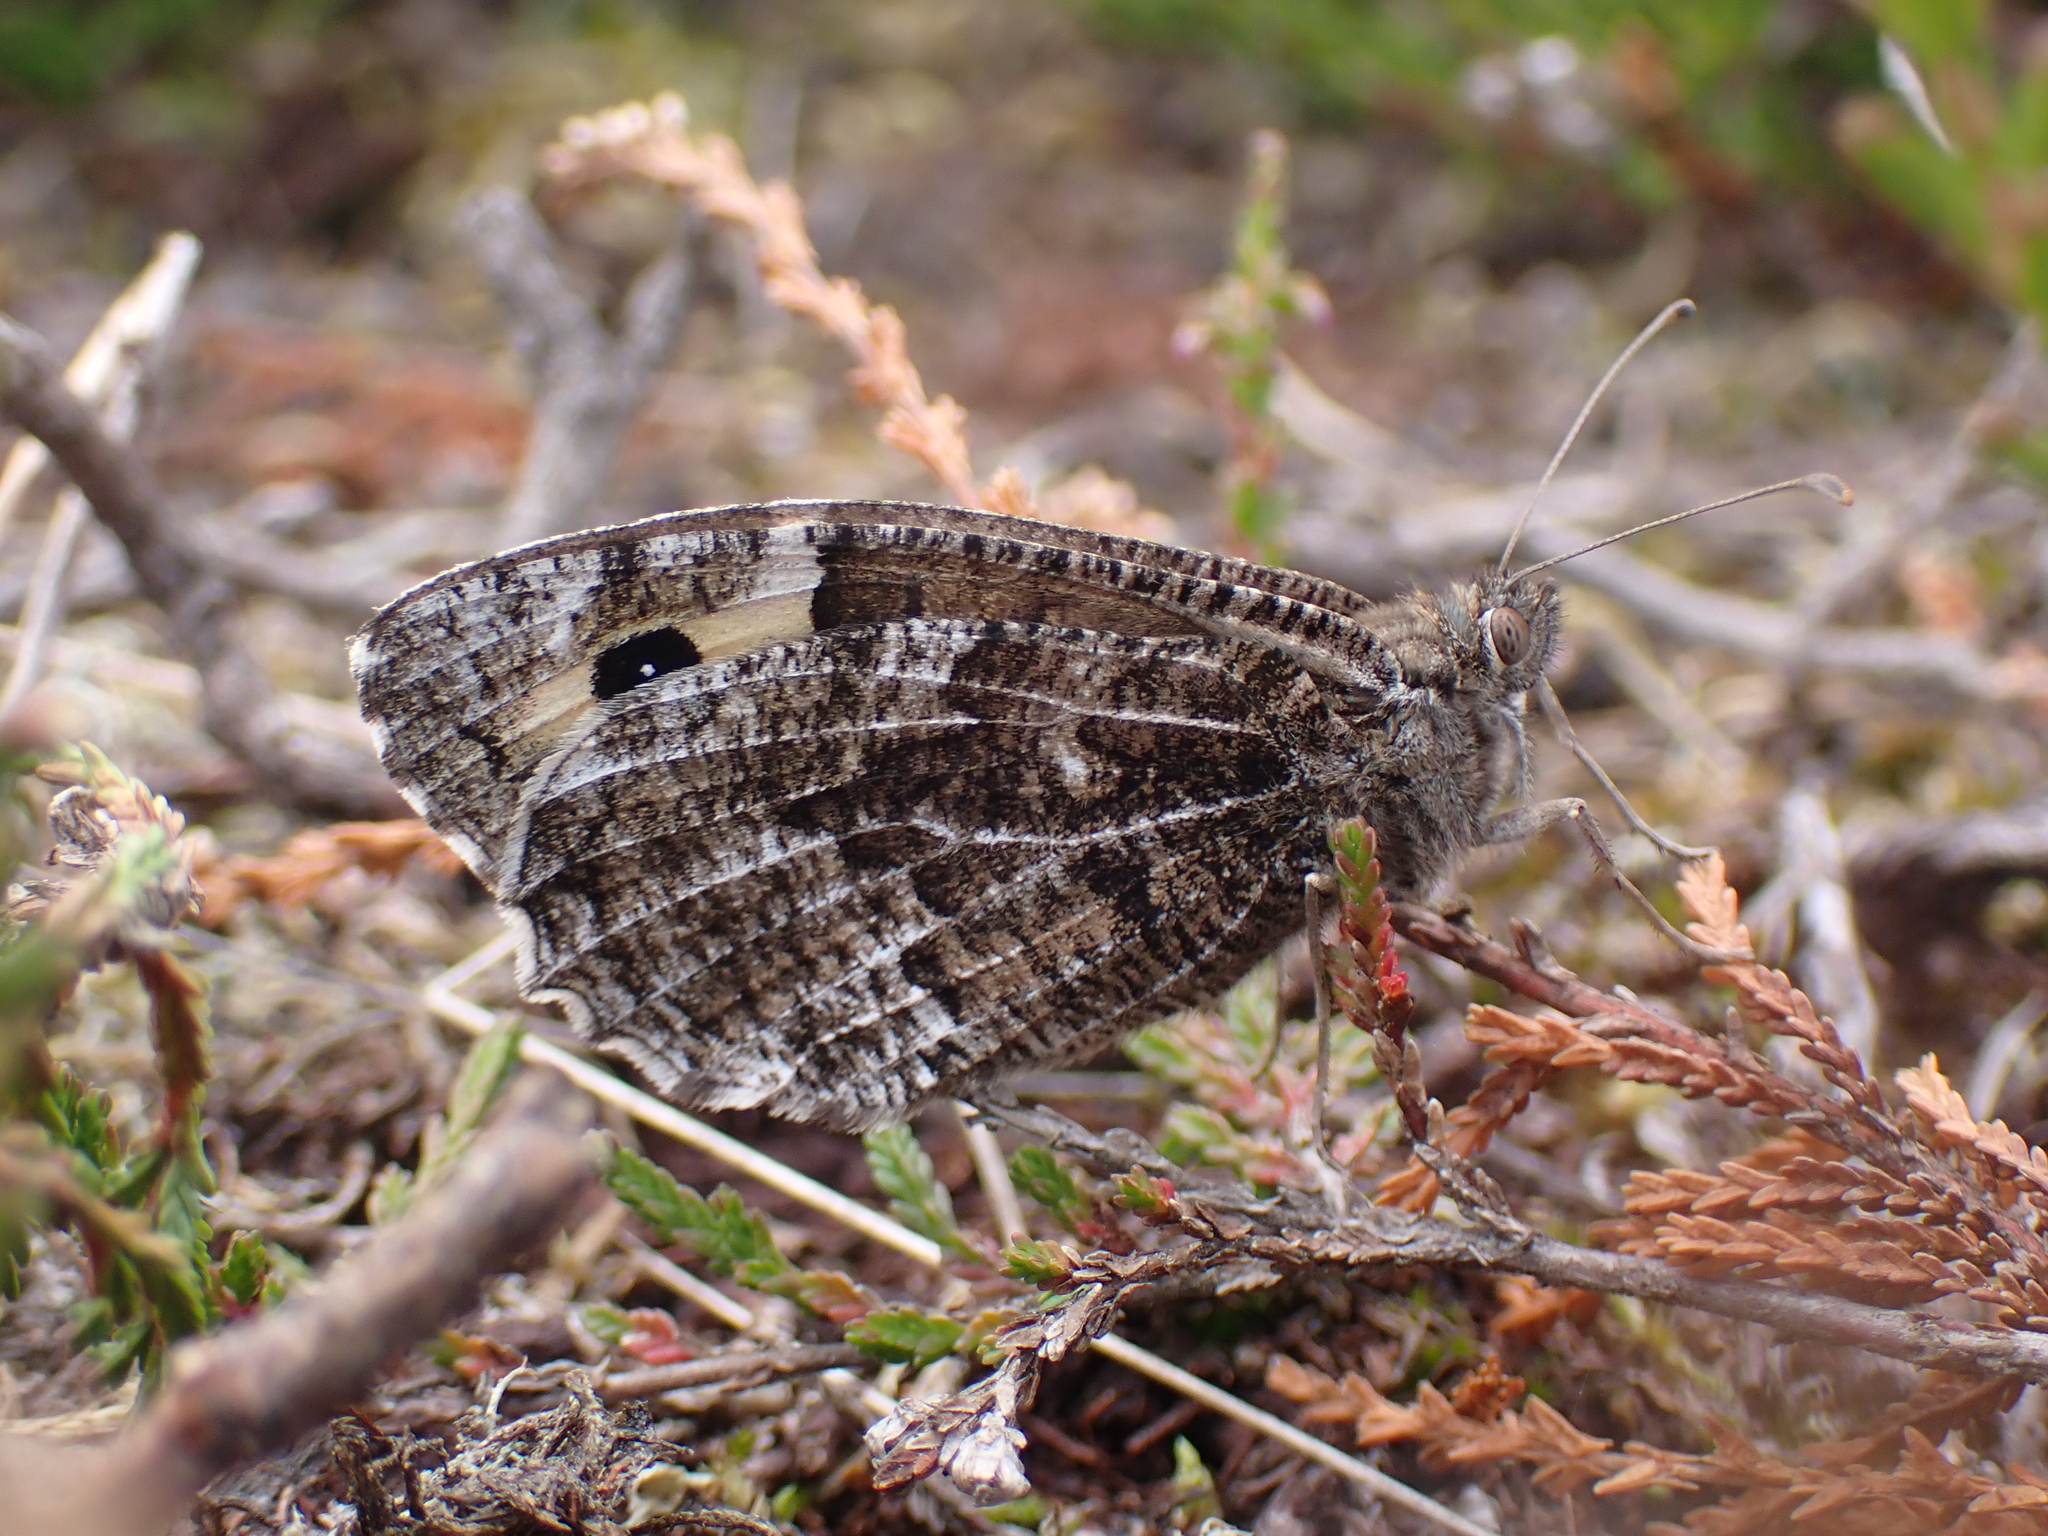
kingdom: Animalia
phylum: Arthropoda
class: Insecta
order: Lepidoptera
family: Nymphalidae
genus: Hipparchia
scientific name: Hipparchia semele
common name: Grayling
